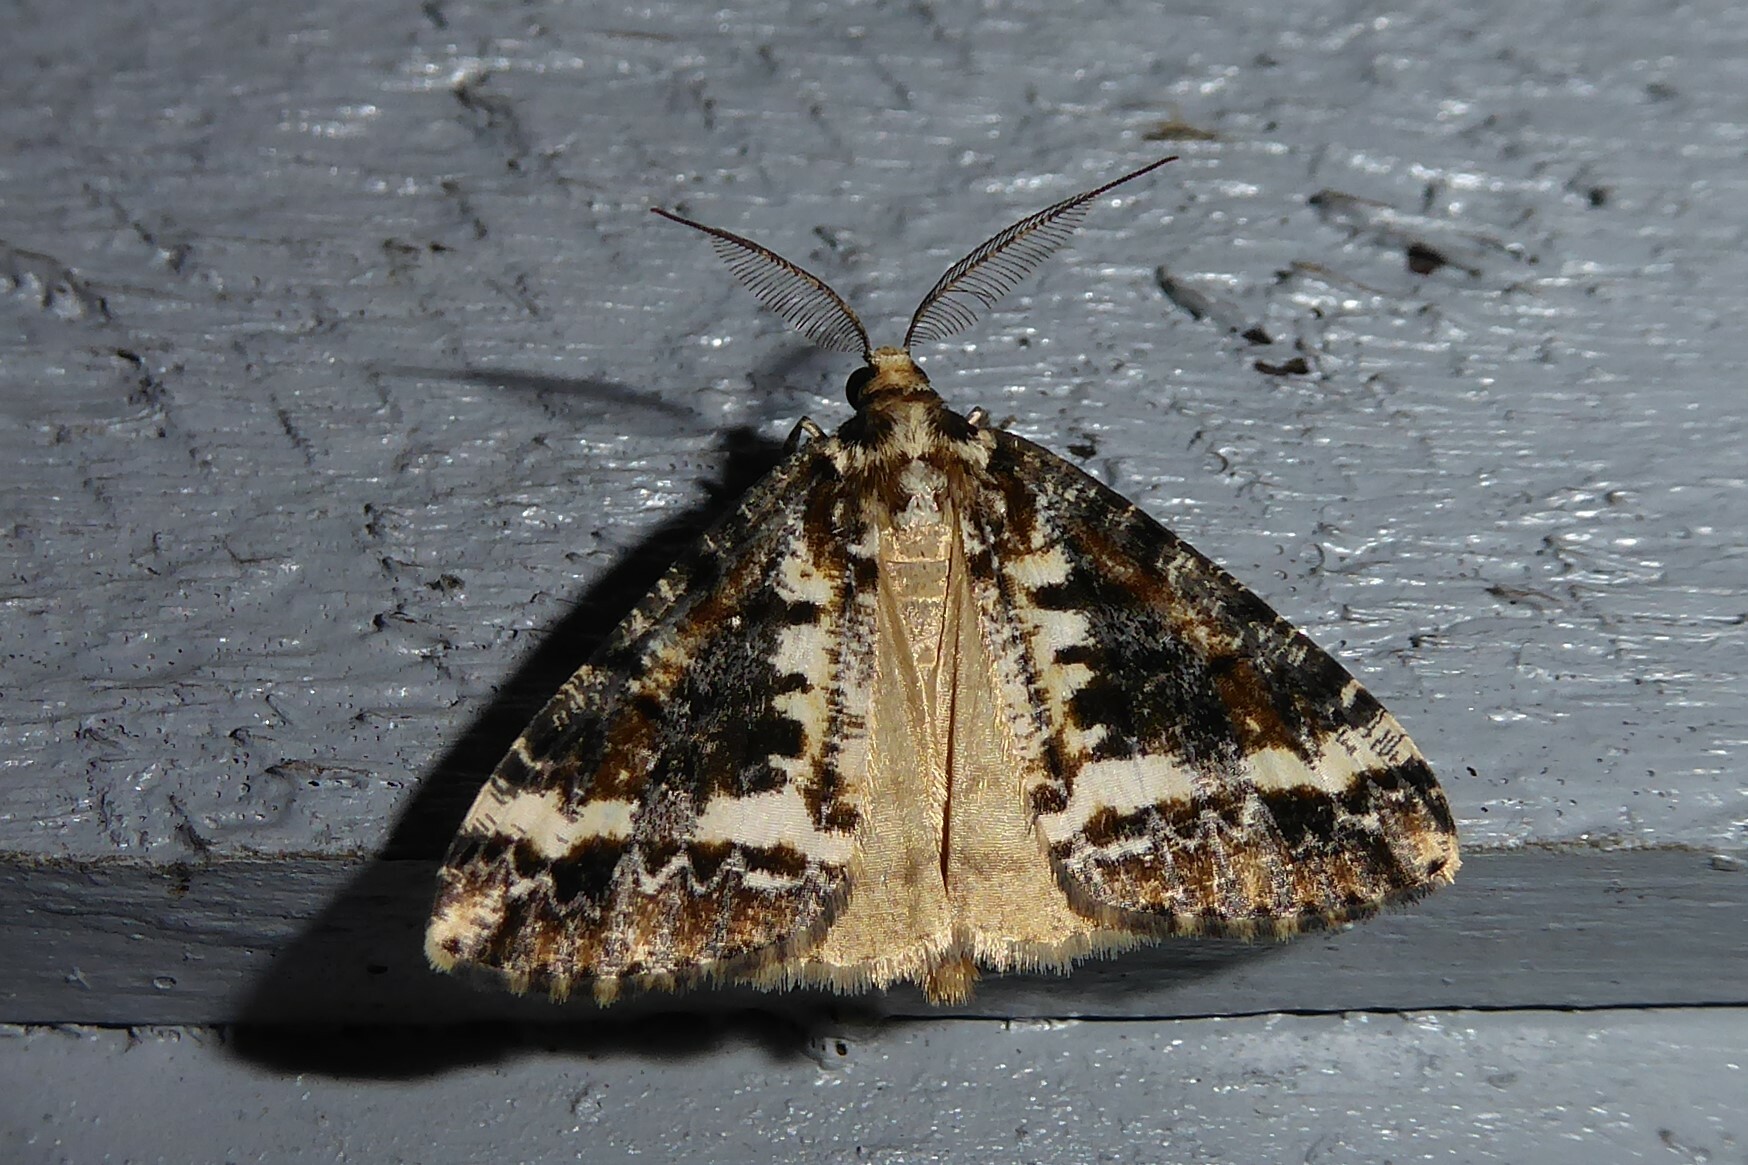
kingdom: Animalia
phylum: Arthropoda
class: Insecta
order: Lepidoptera
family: Geometridae
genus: Pseudocoremia
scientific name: Pseudocoremia leucelaea
